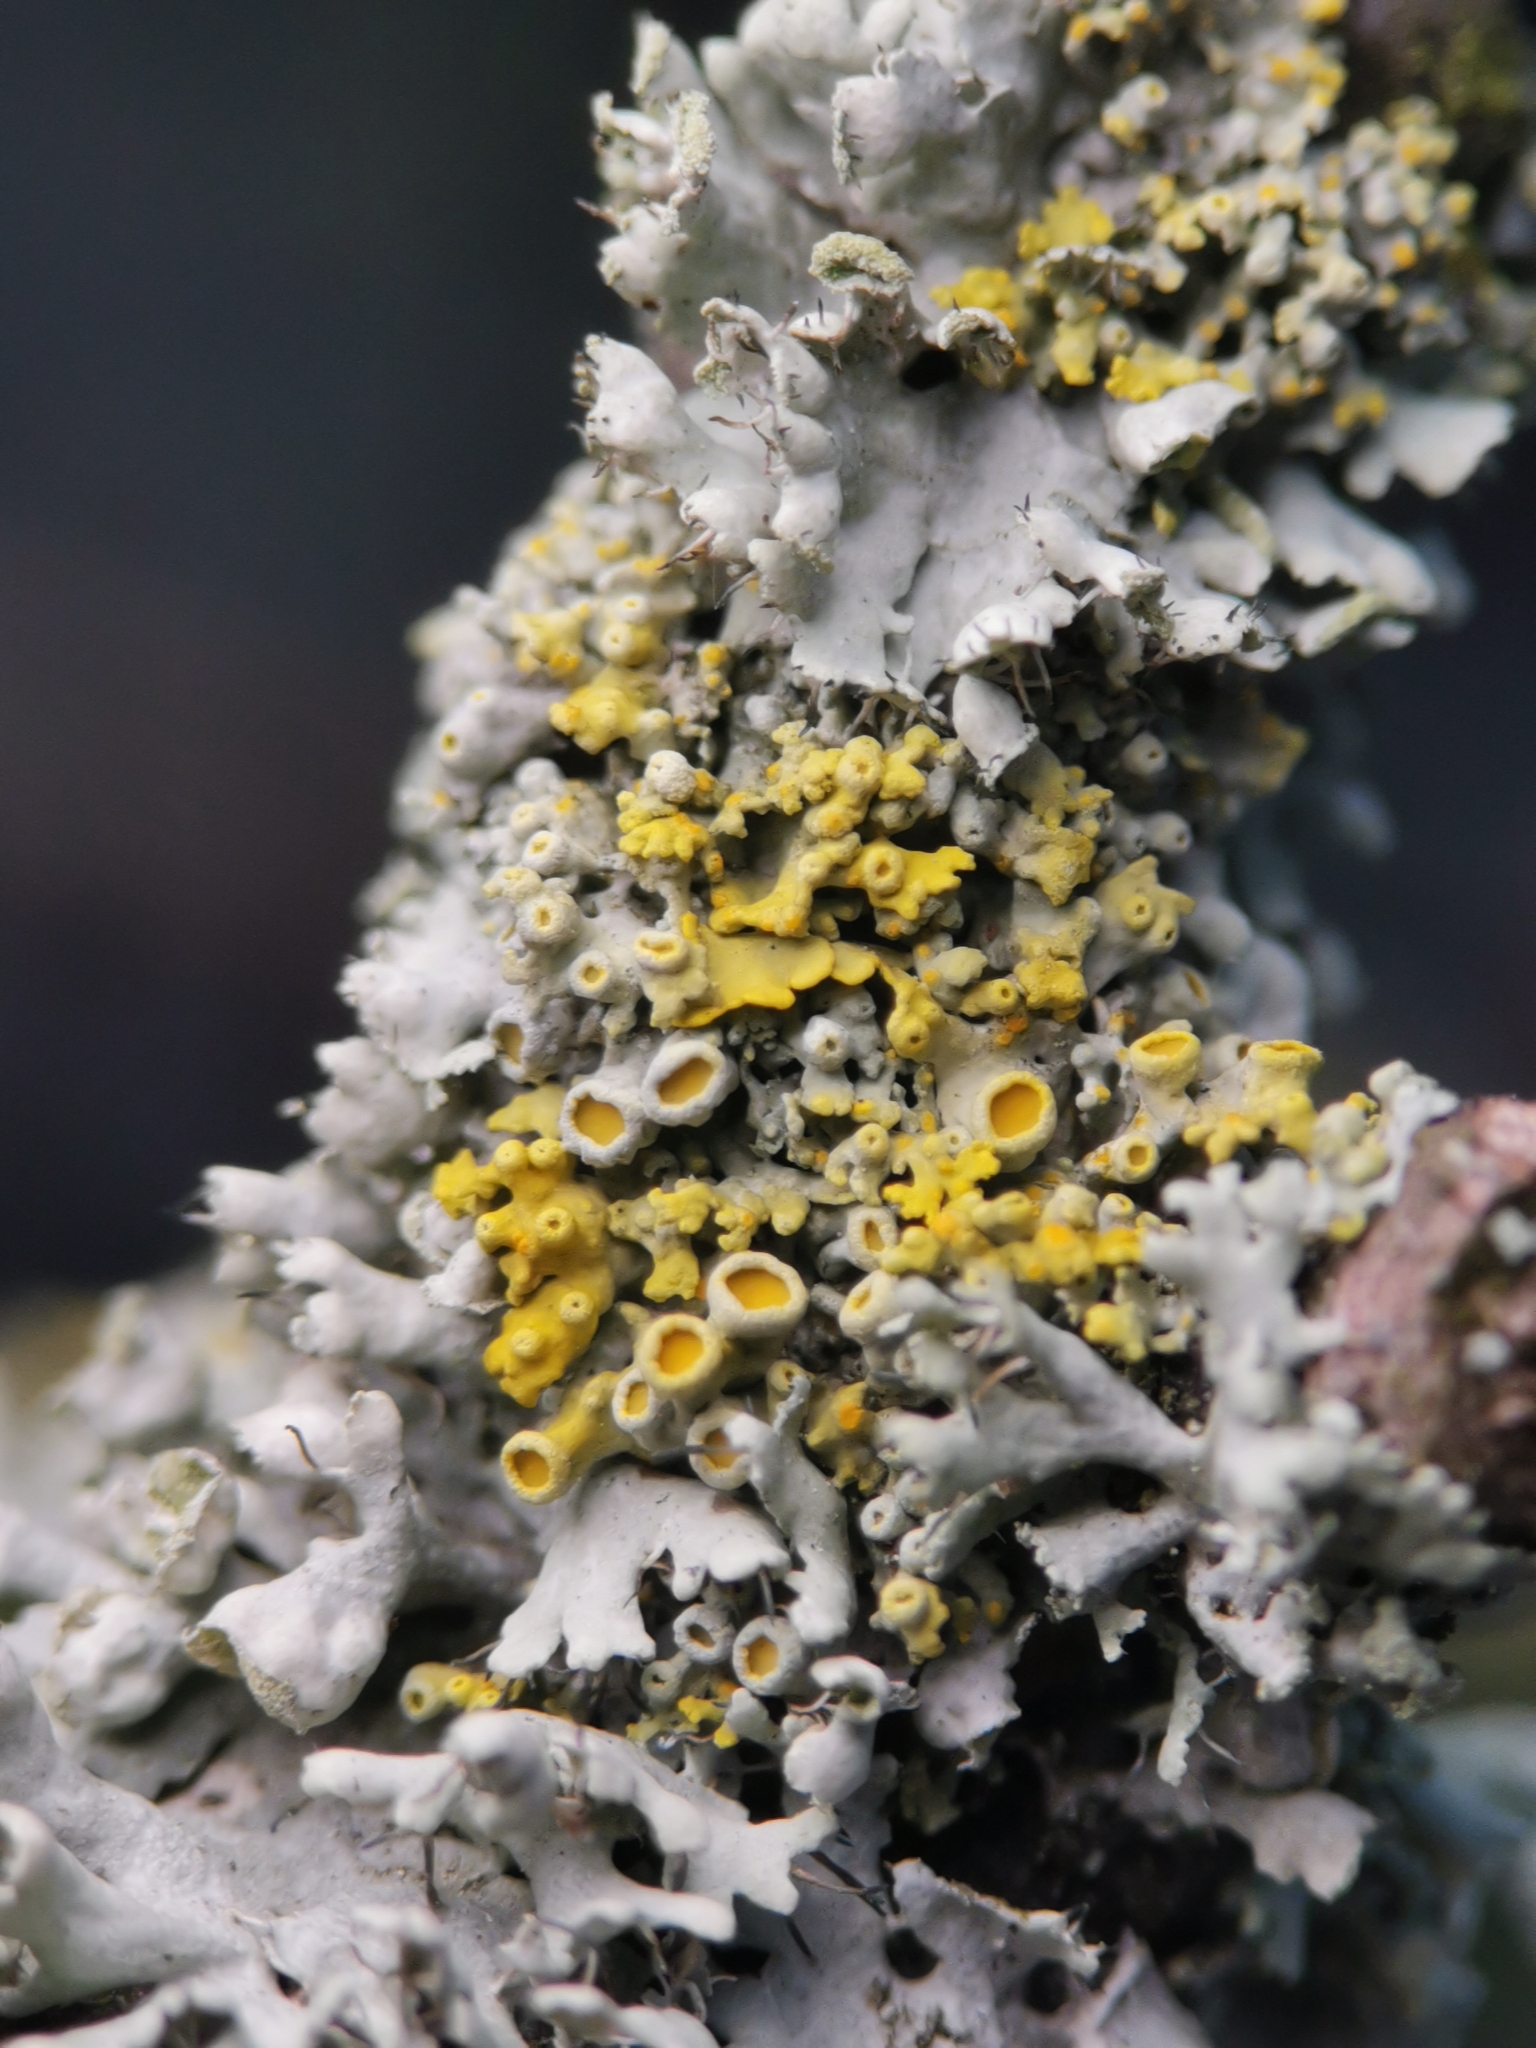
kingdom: Fungi
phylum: Ascomycota
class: Lecanoromycetes
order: Teloschistales
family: Teloschistaceae
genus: Polycauliona
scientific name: Polycauliona polycarpa
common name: Pin-cushion sunburst lichen
